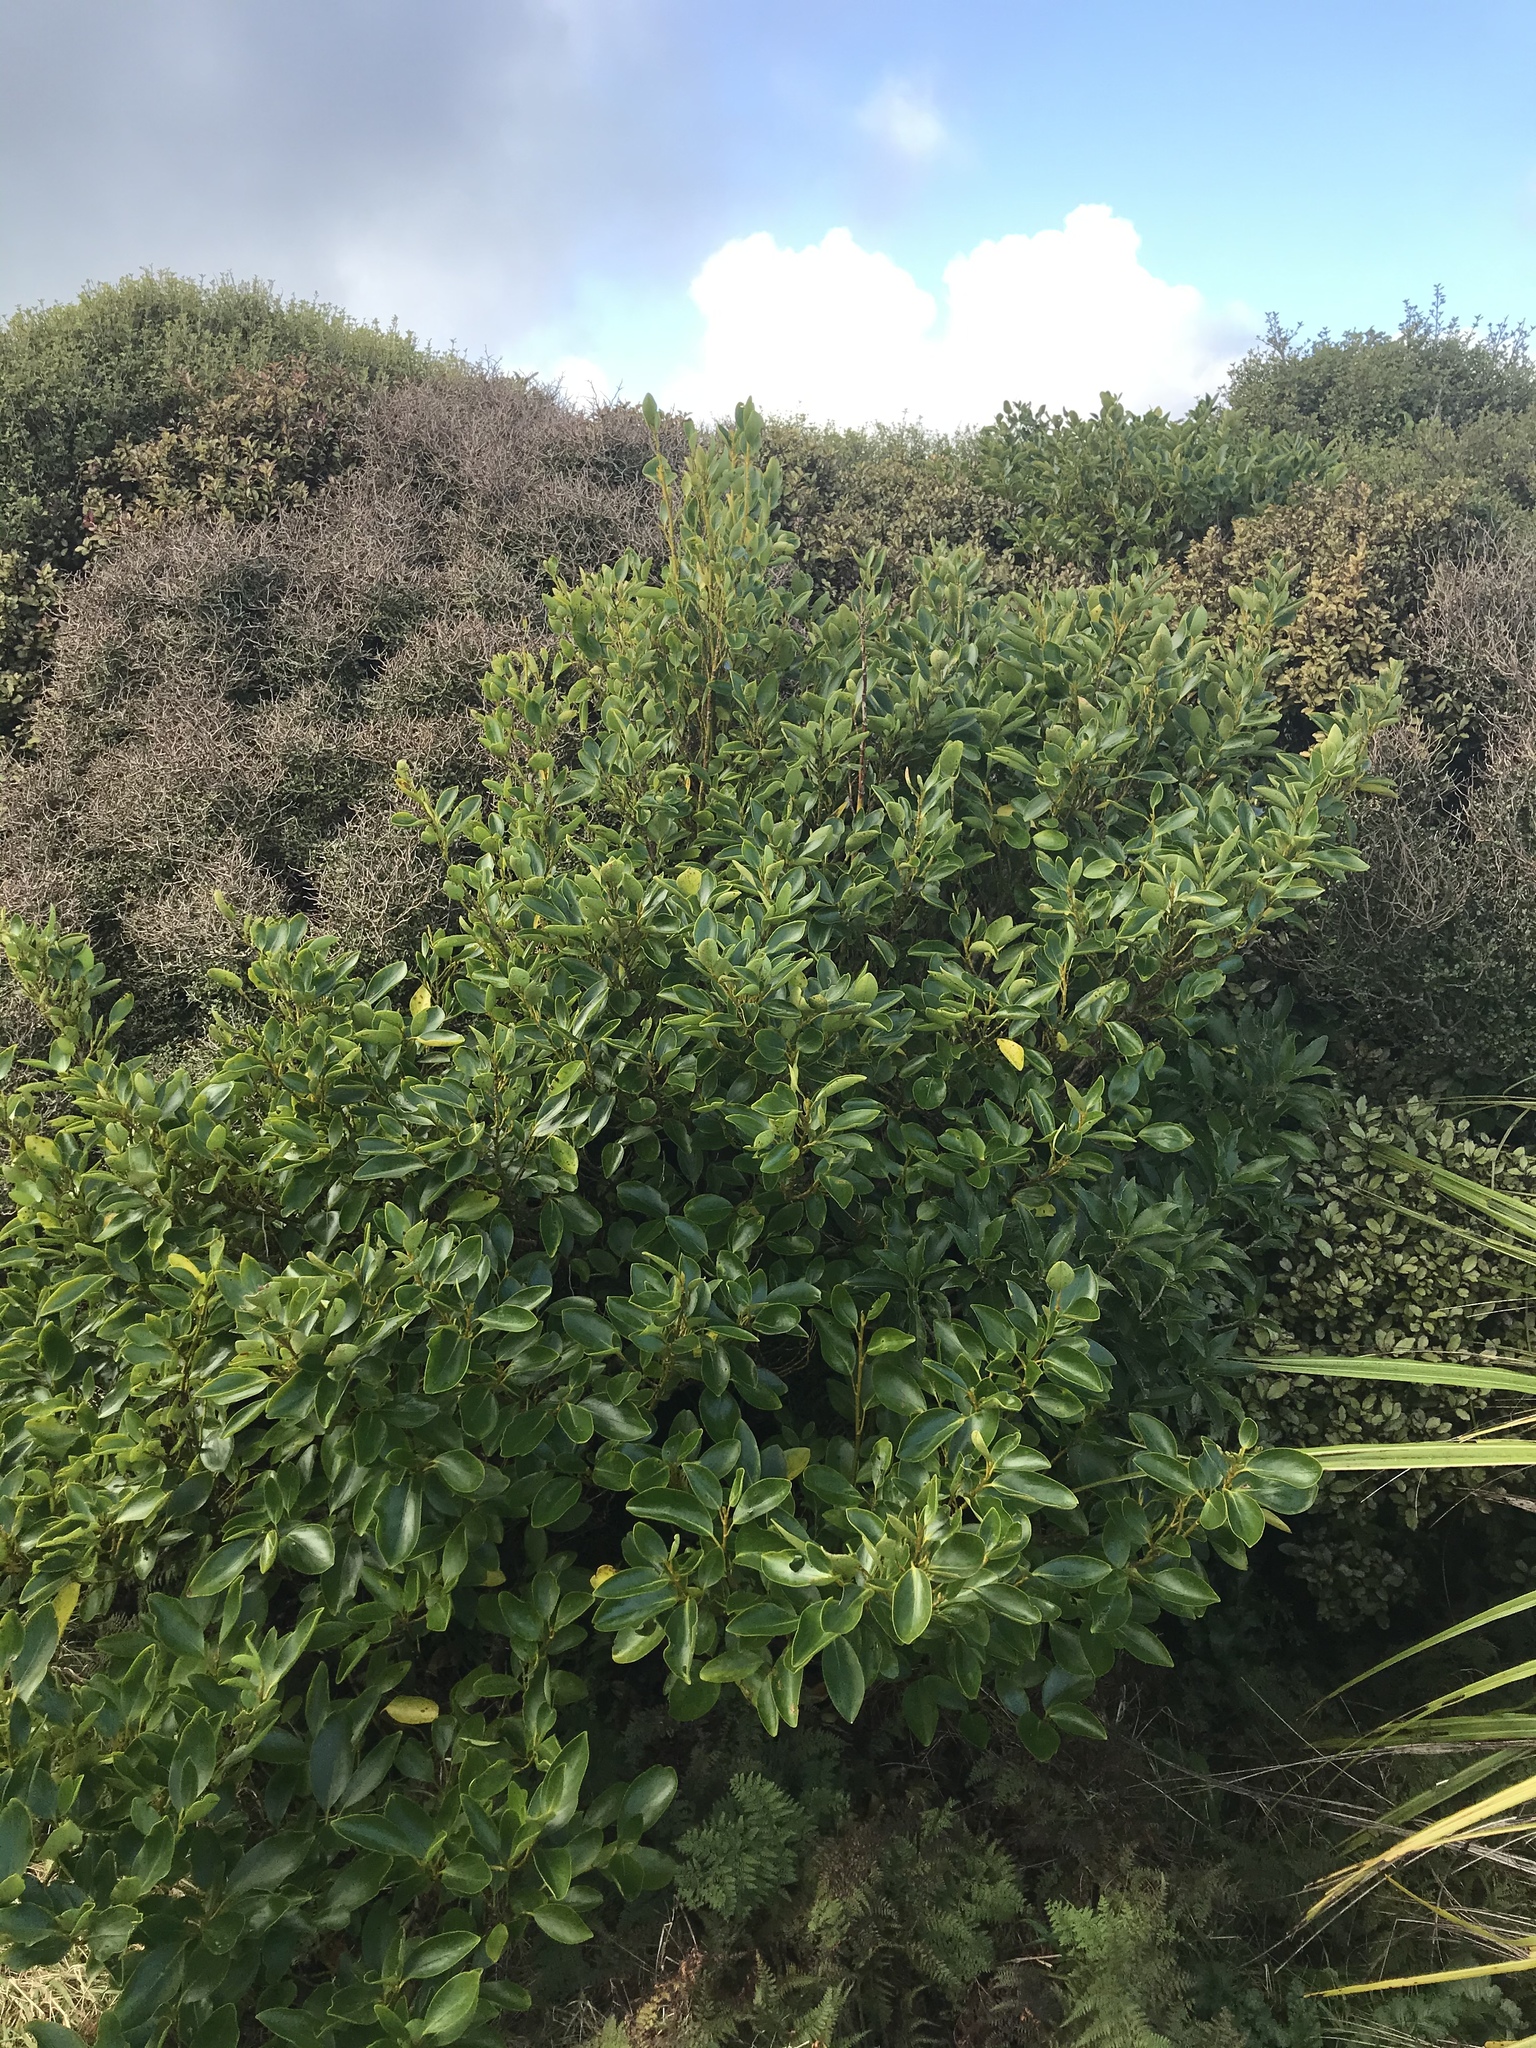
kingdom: Plantae
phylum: Tracheophyta
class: Magnoliopsida
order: Apiales
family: Griseliniaceae
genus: Griselinia
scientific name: Griselinia littoralis
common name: New zealand broadleaf
